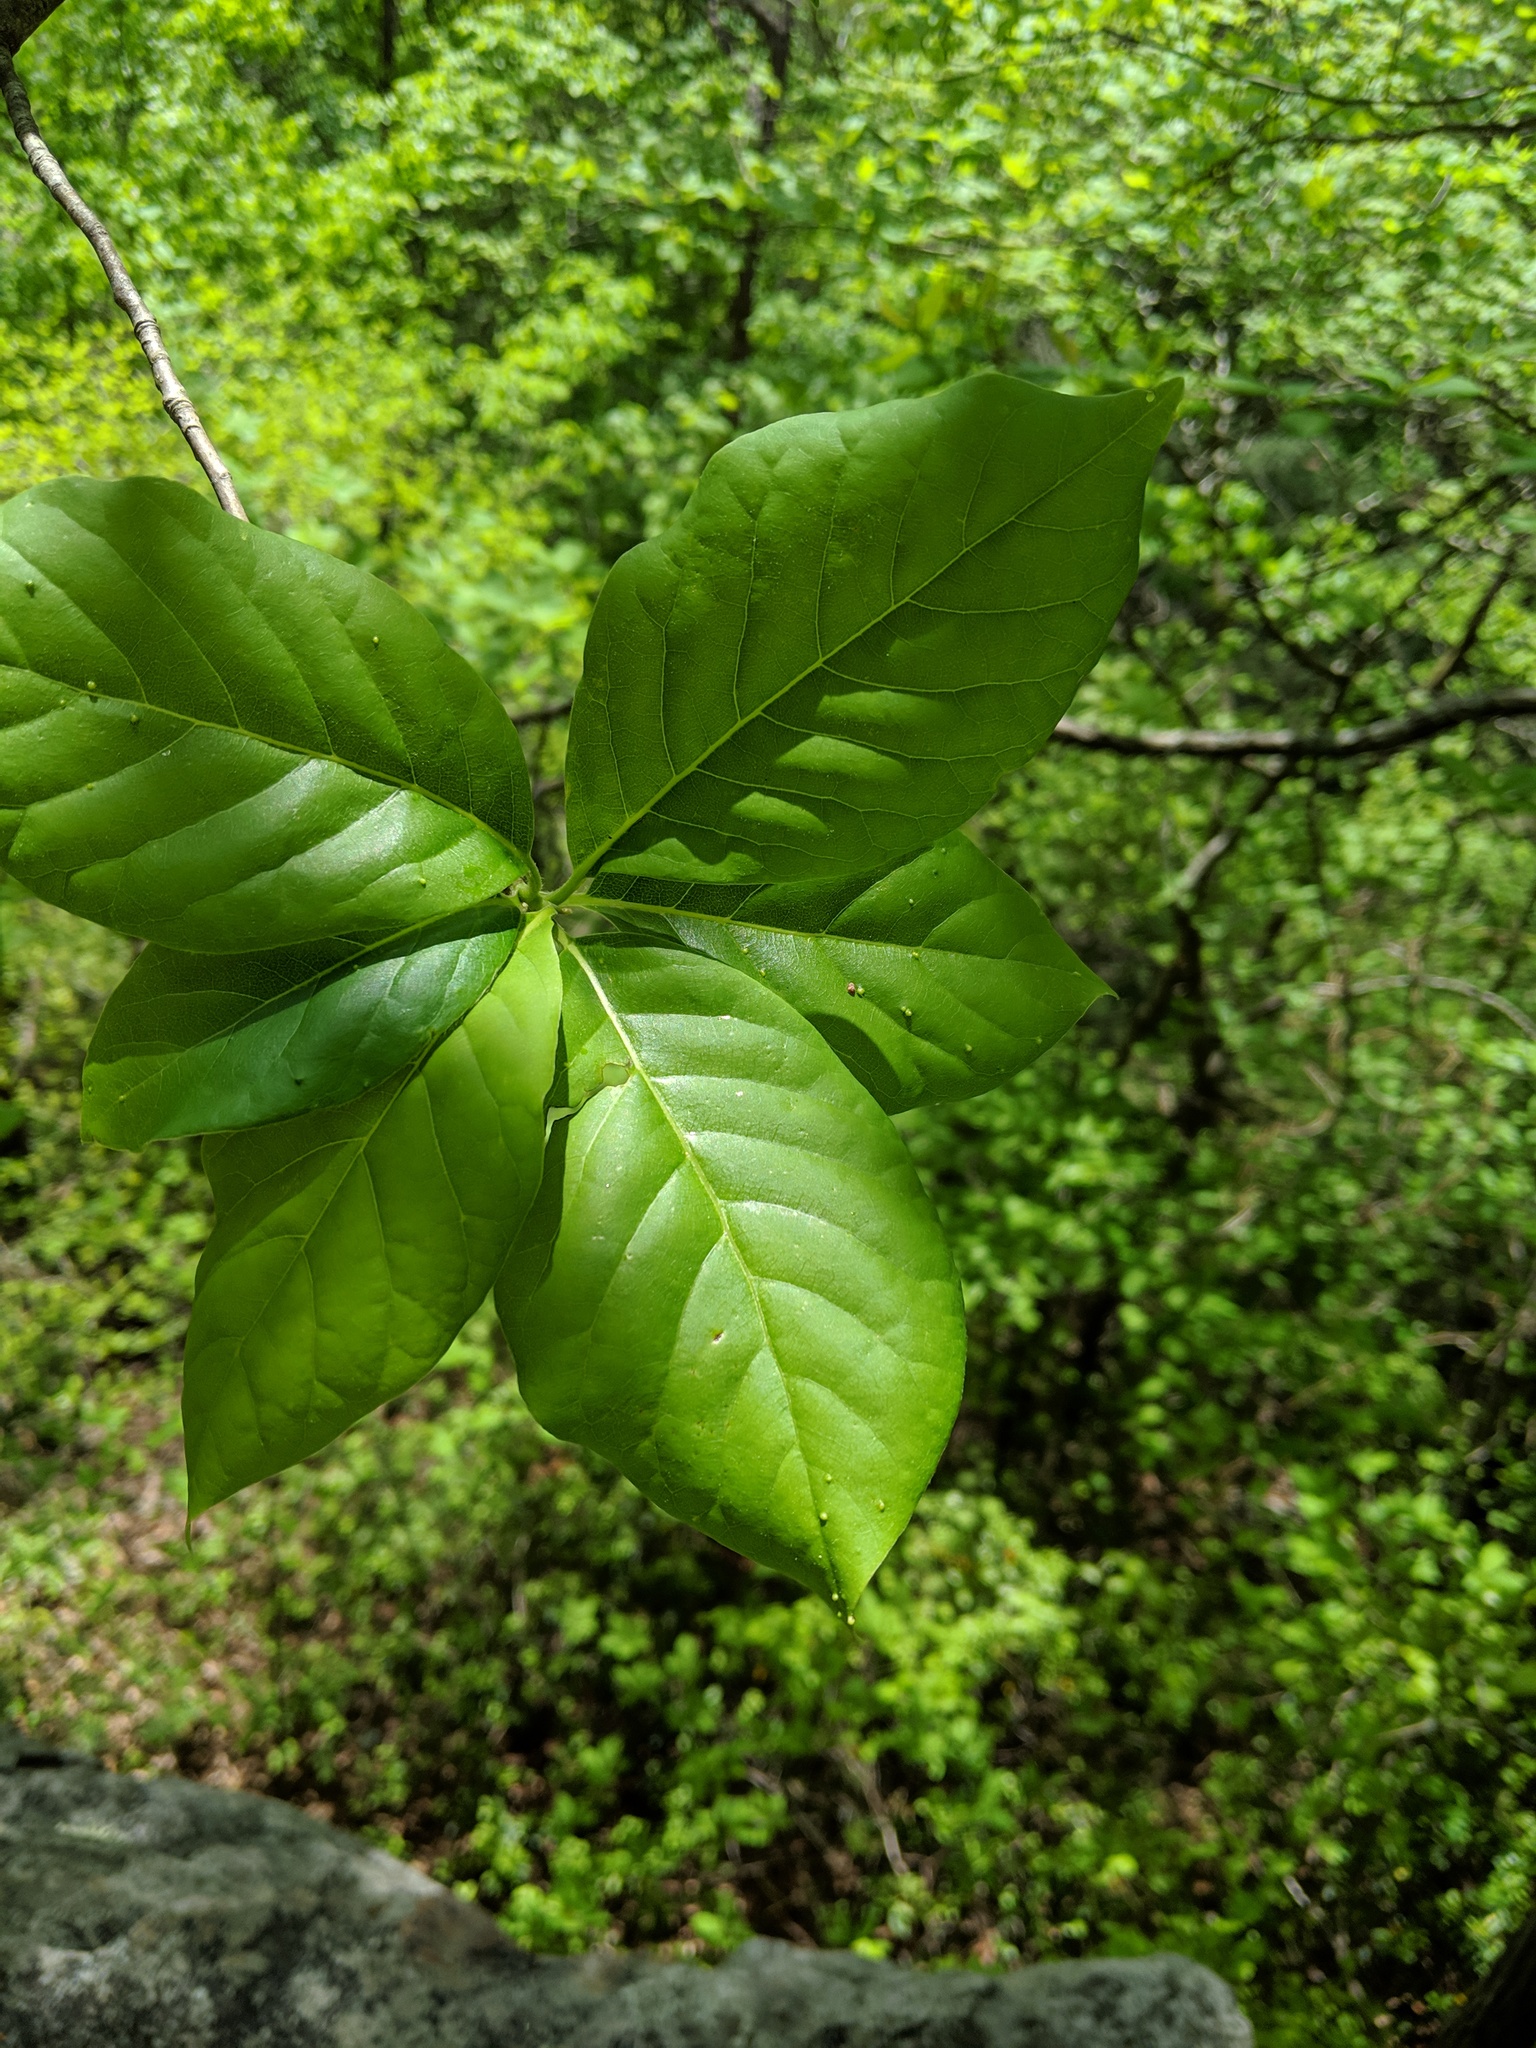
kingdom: Plantae
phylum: Tracheophyta
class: Magnoliopsida
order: Cornales
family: Nyssaceae
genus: Nyssa
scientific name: Nyssa sylvatica
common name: Black tupelo
